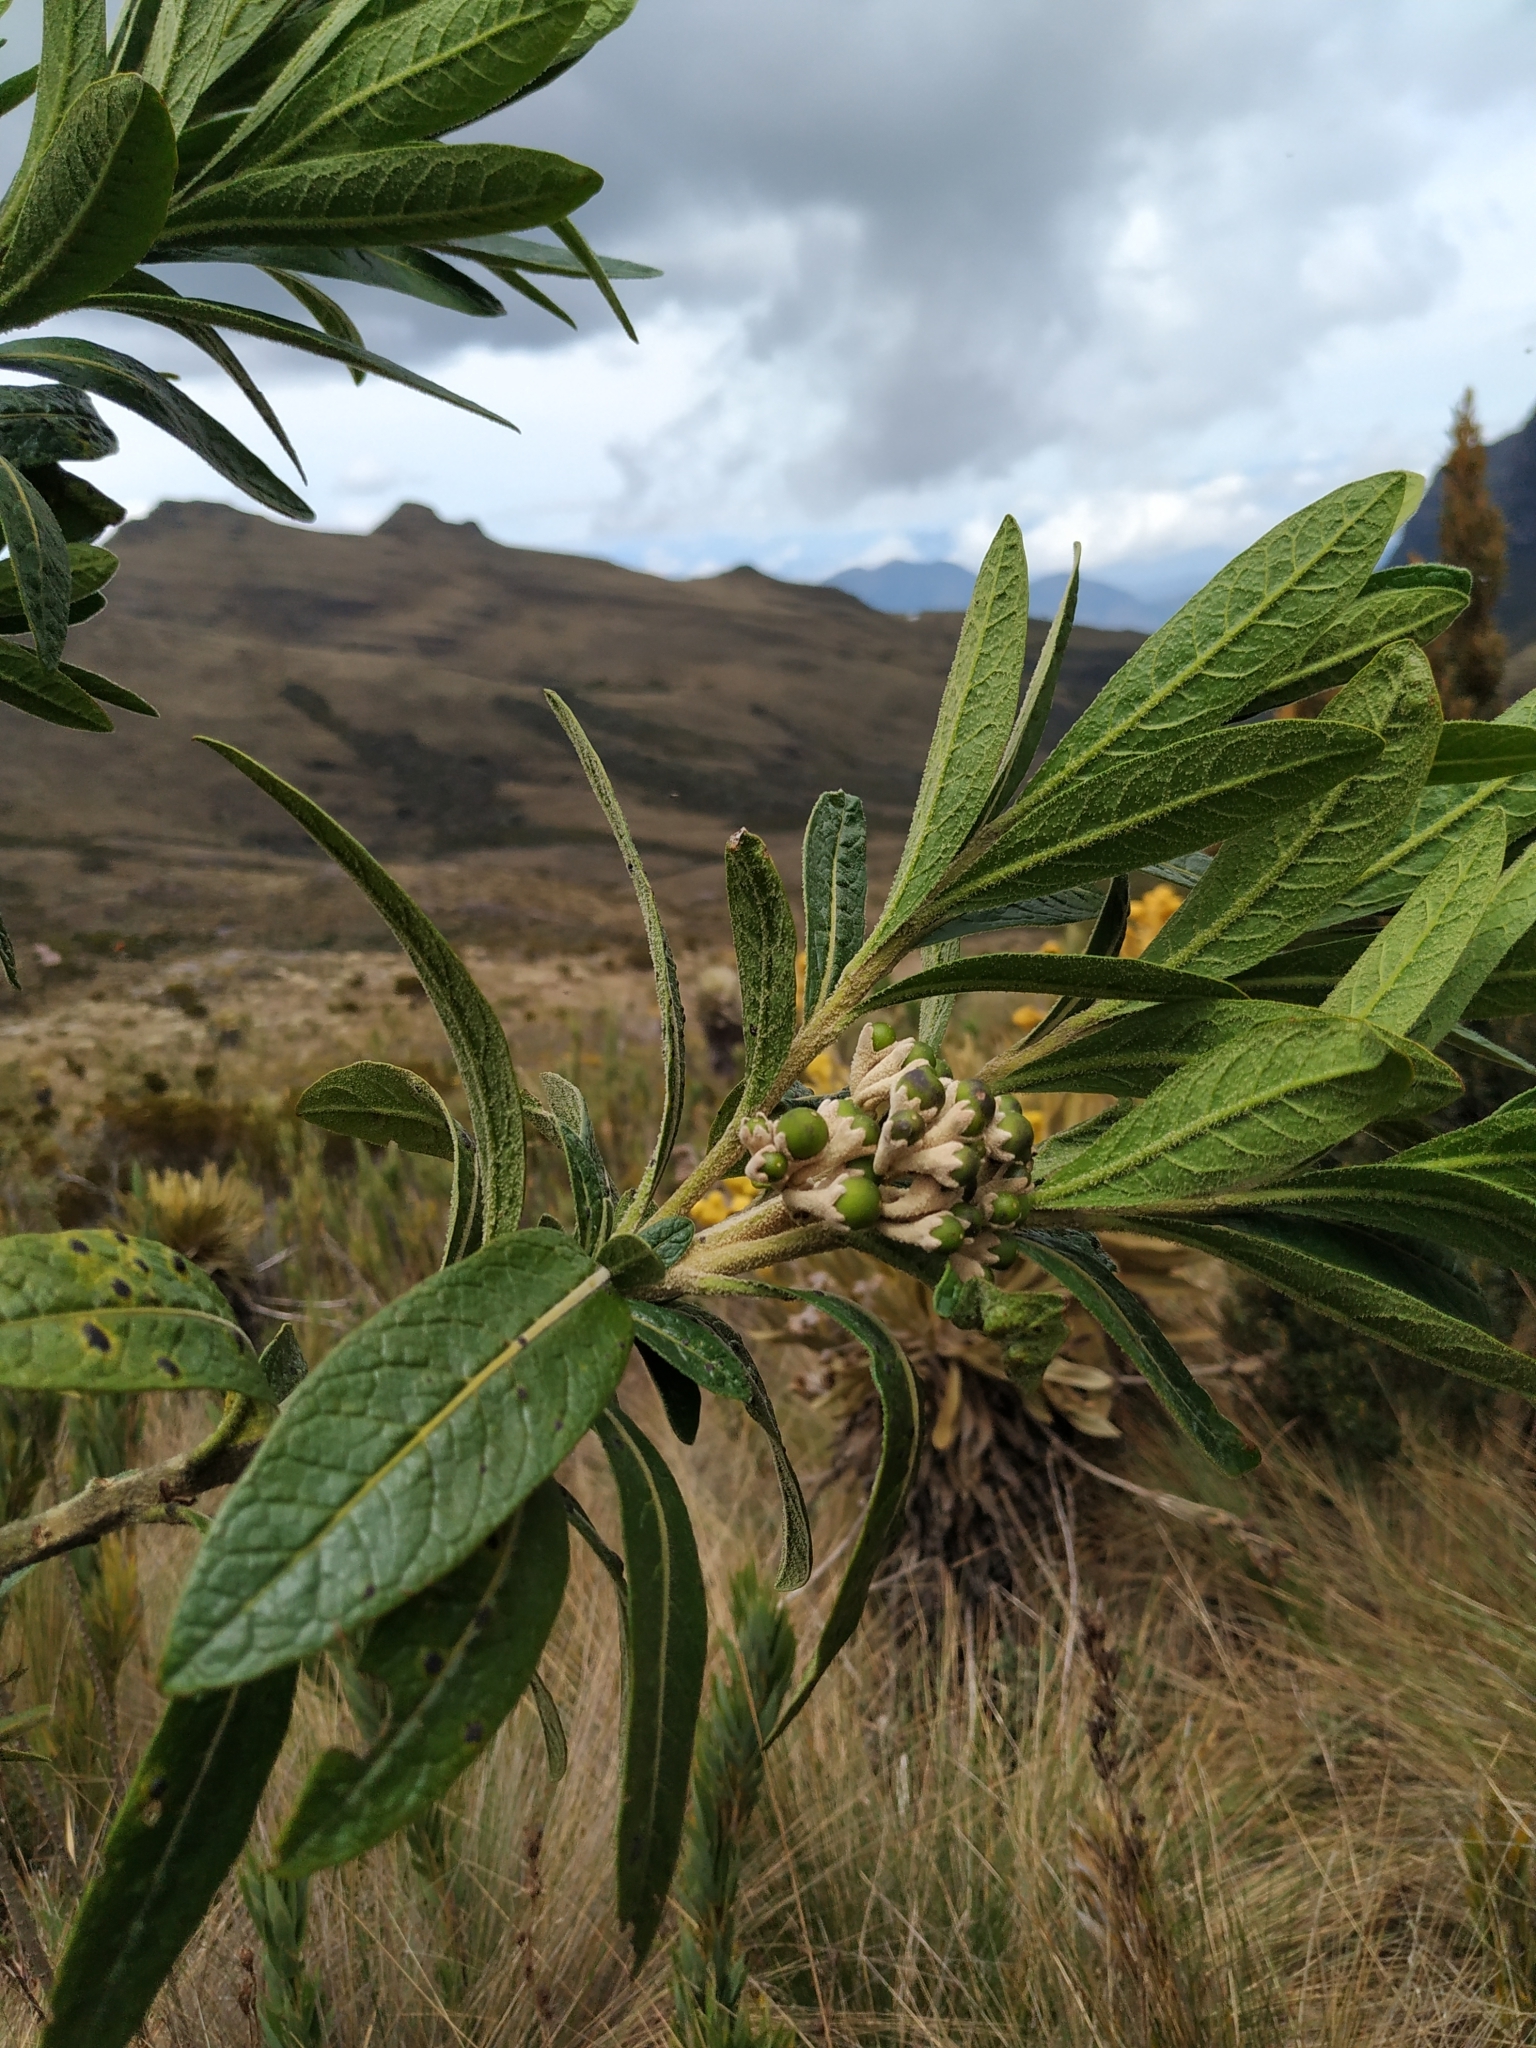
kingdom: Plantae
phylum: Tracheophyta
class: Magnoliopsida
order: Solanales
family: Solanaceae
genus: Solanum
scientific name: Solanum stenophyllum
